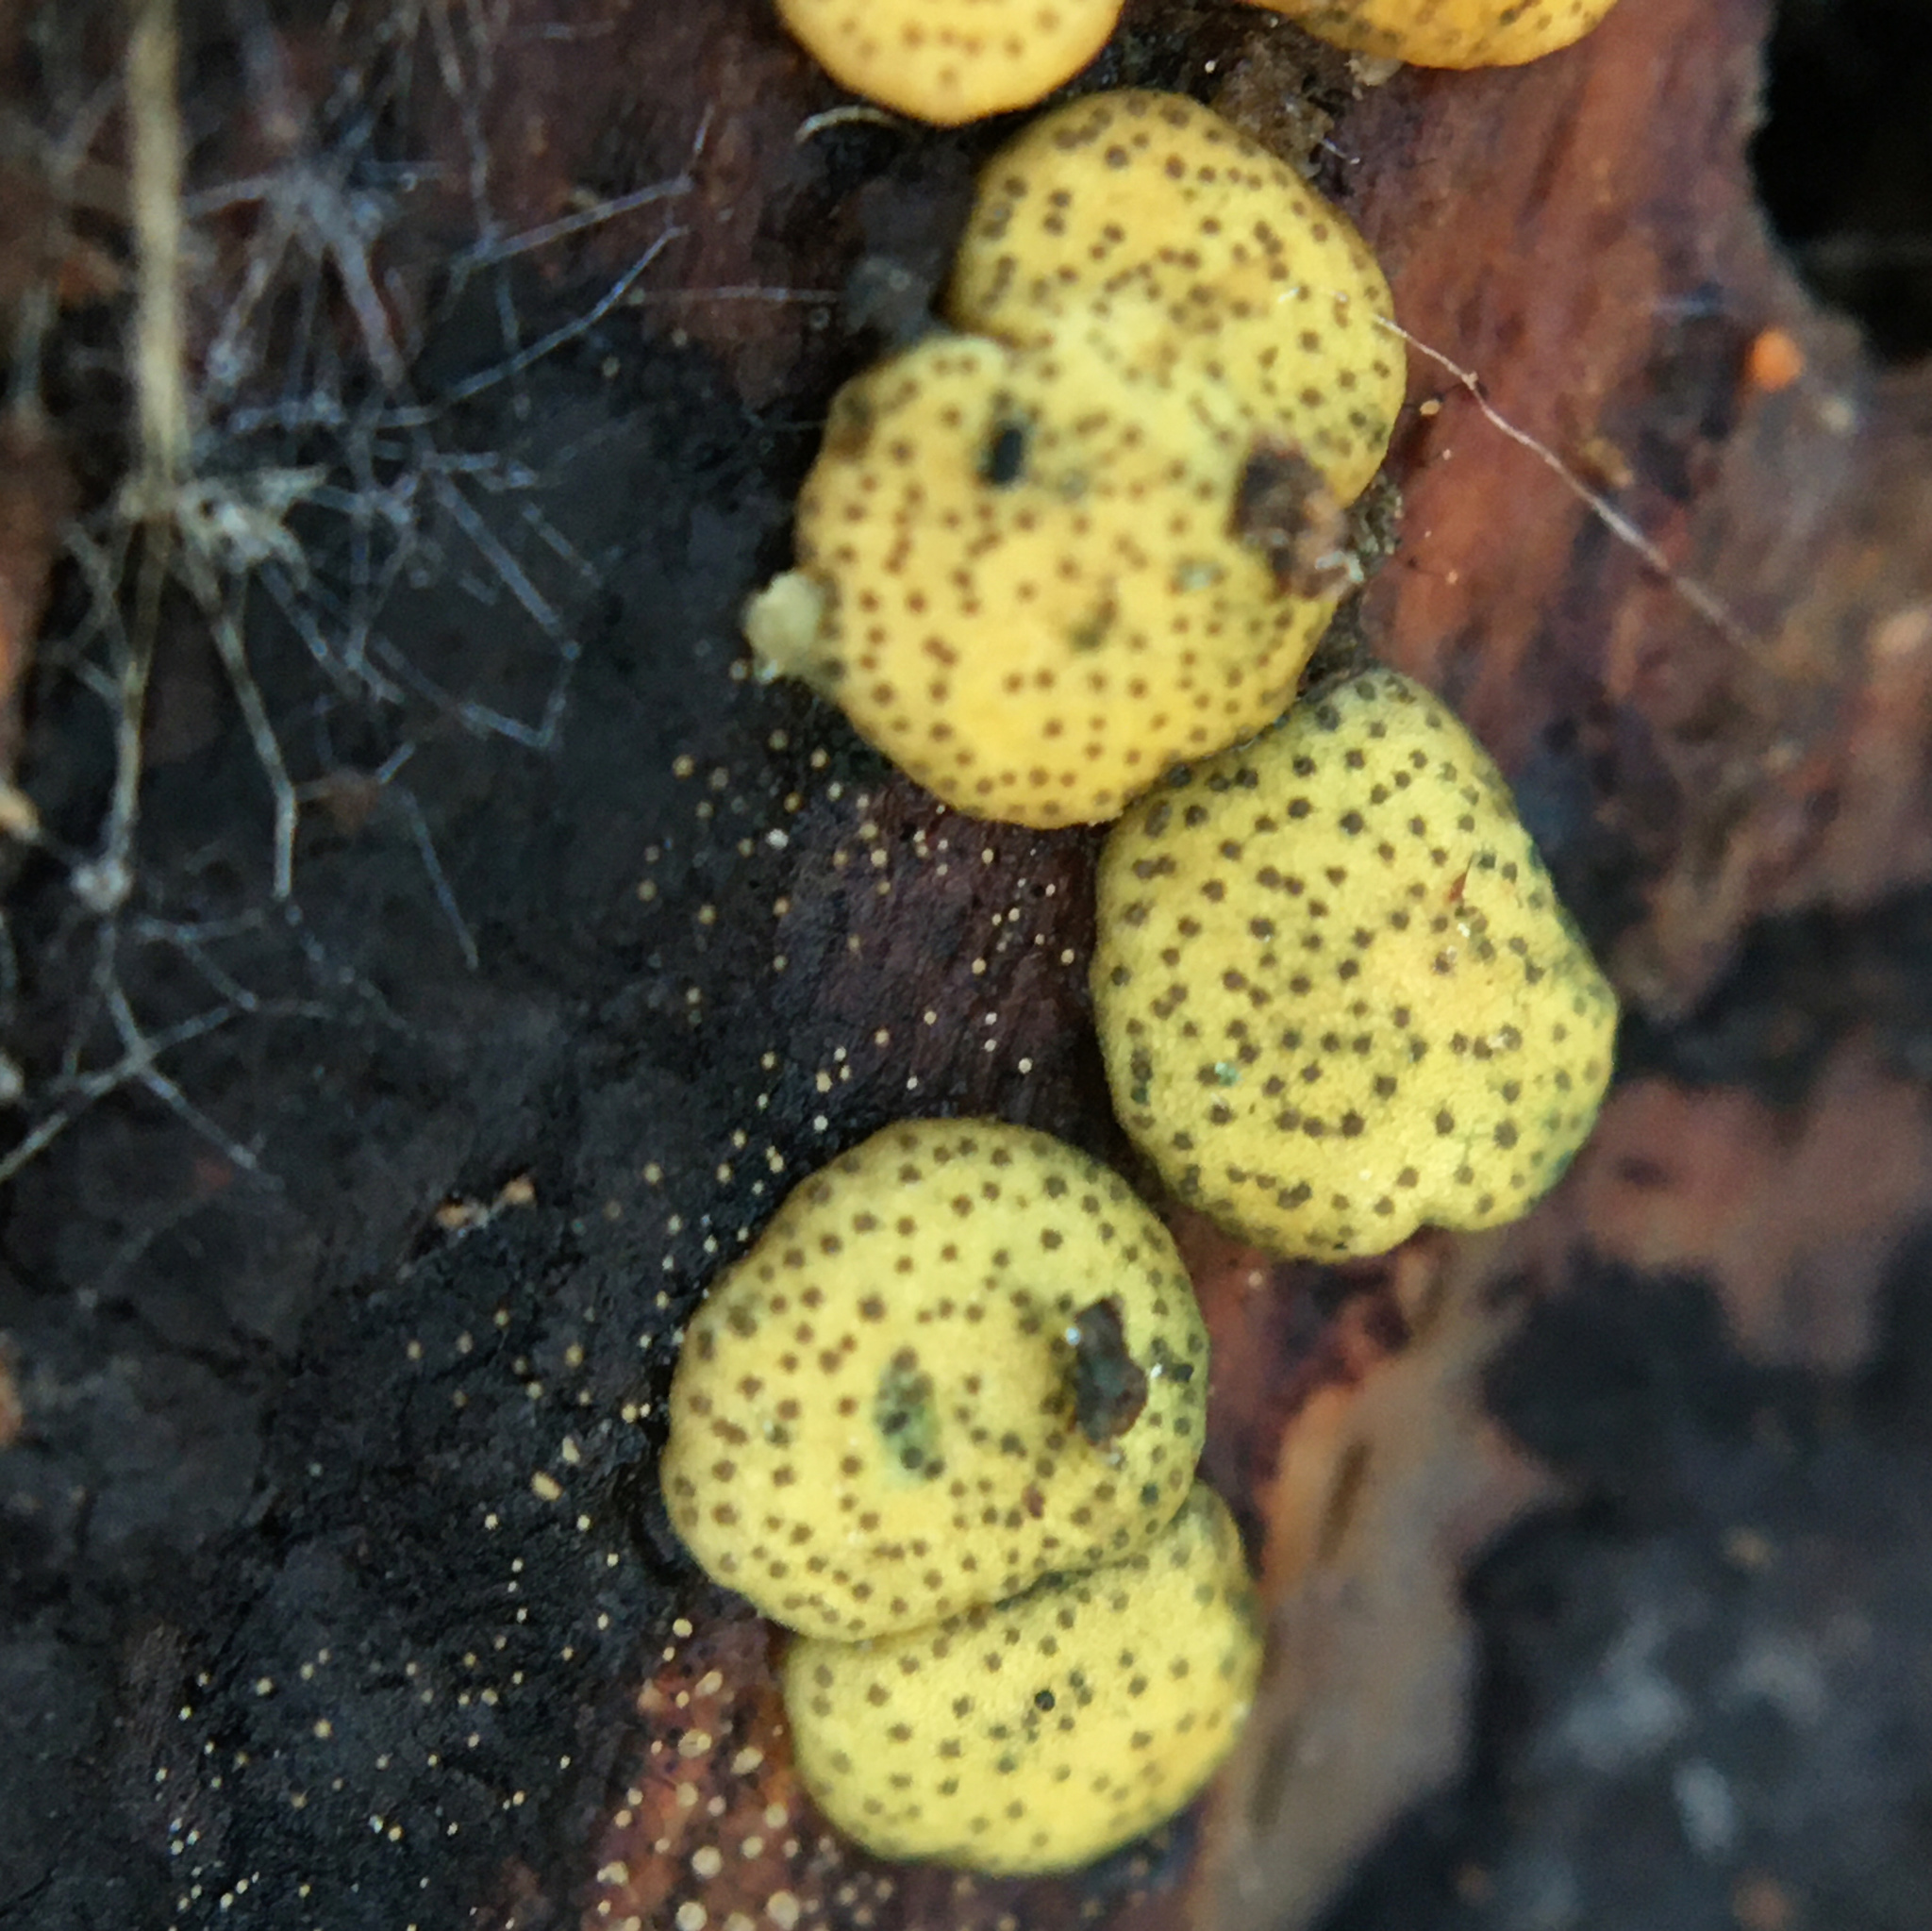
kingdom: Fungi
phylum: Ascomycota
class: Sordariomycetes
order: Hypocreales
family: Hypocreaceae
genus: Trichoderma
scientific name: Trichoderma gelatinosum
